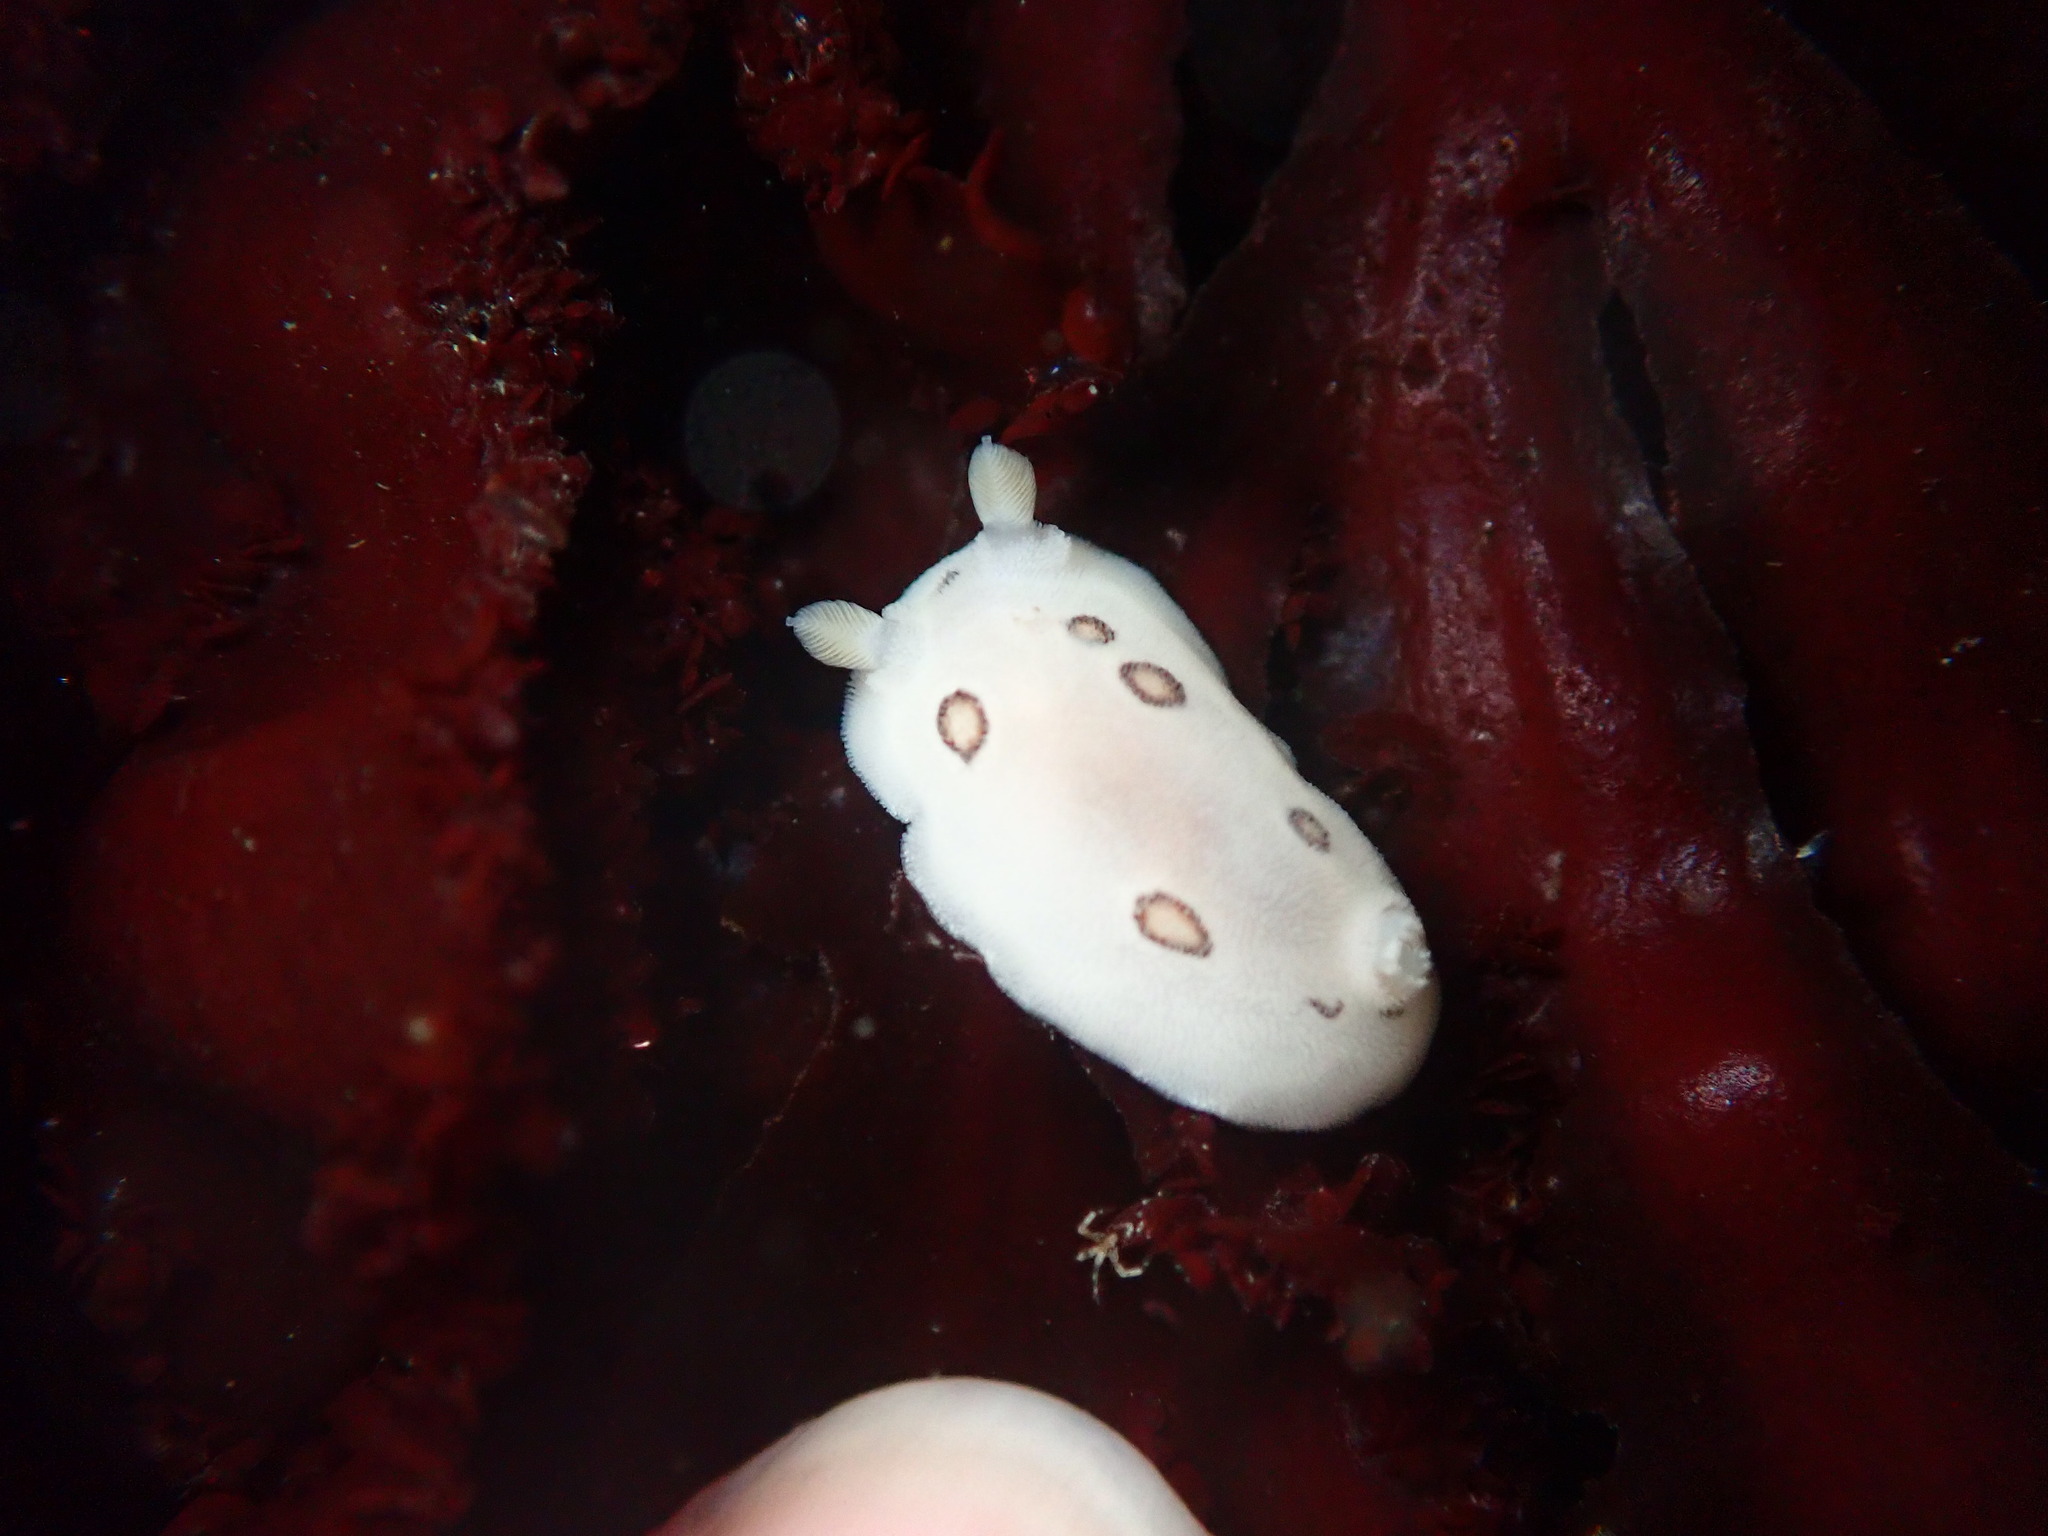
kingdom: Animalia
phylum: Mollusca
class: Gastropoda
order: Nudibranchia
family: Discodorididae
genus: Diaulula
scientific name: Diaulula sandiegensis
